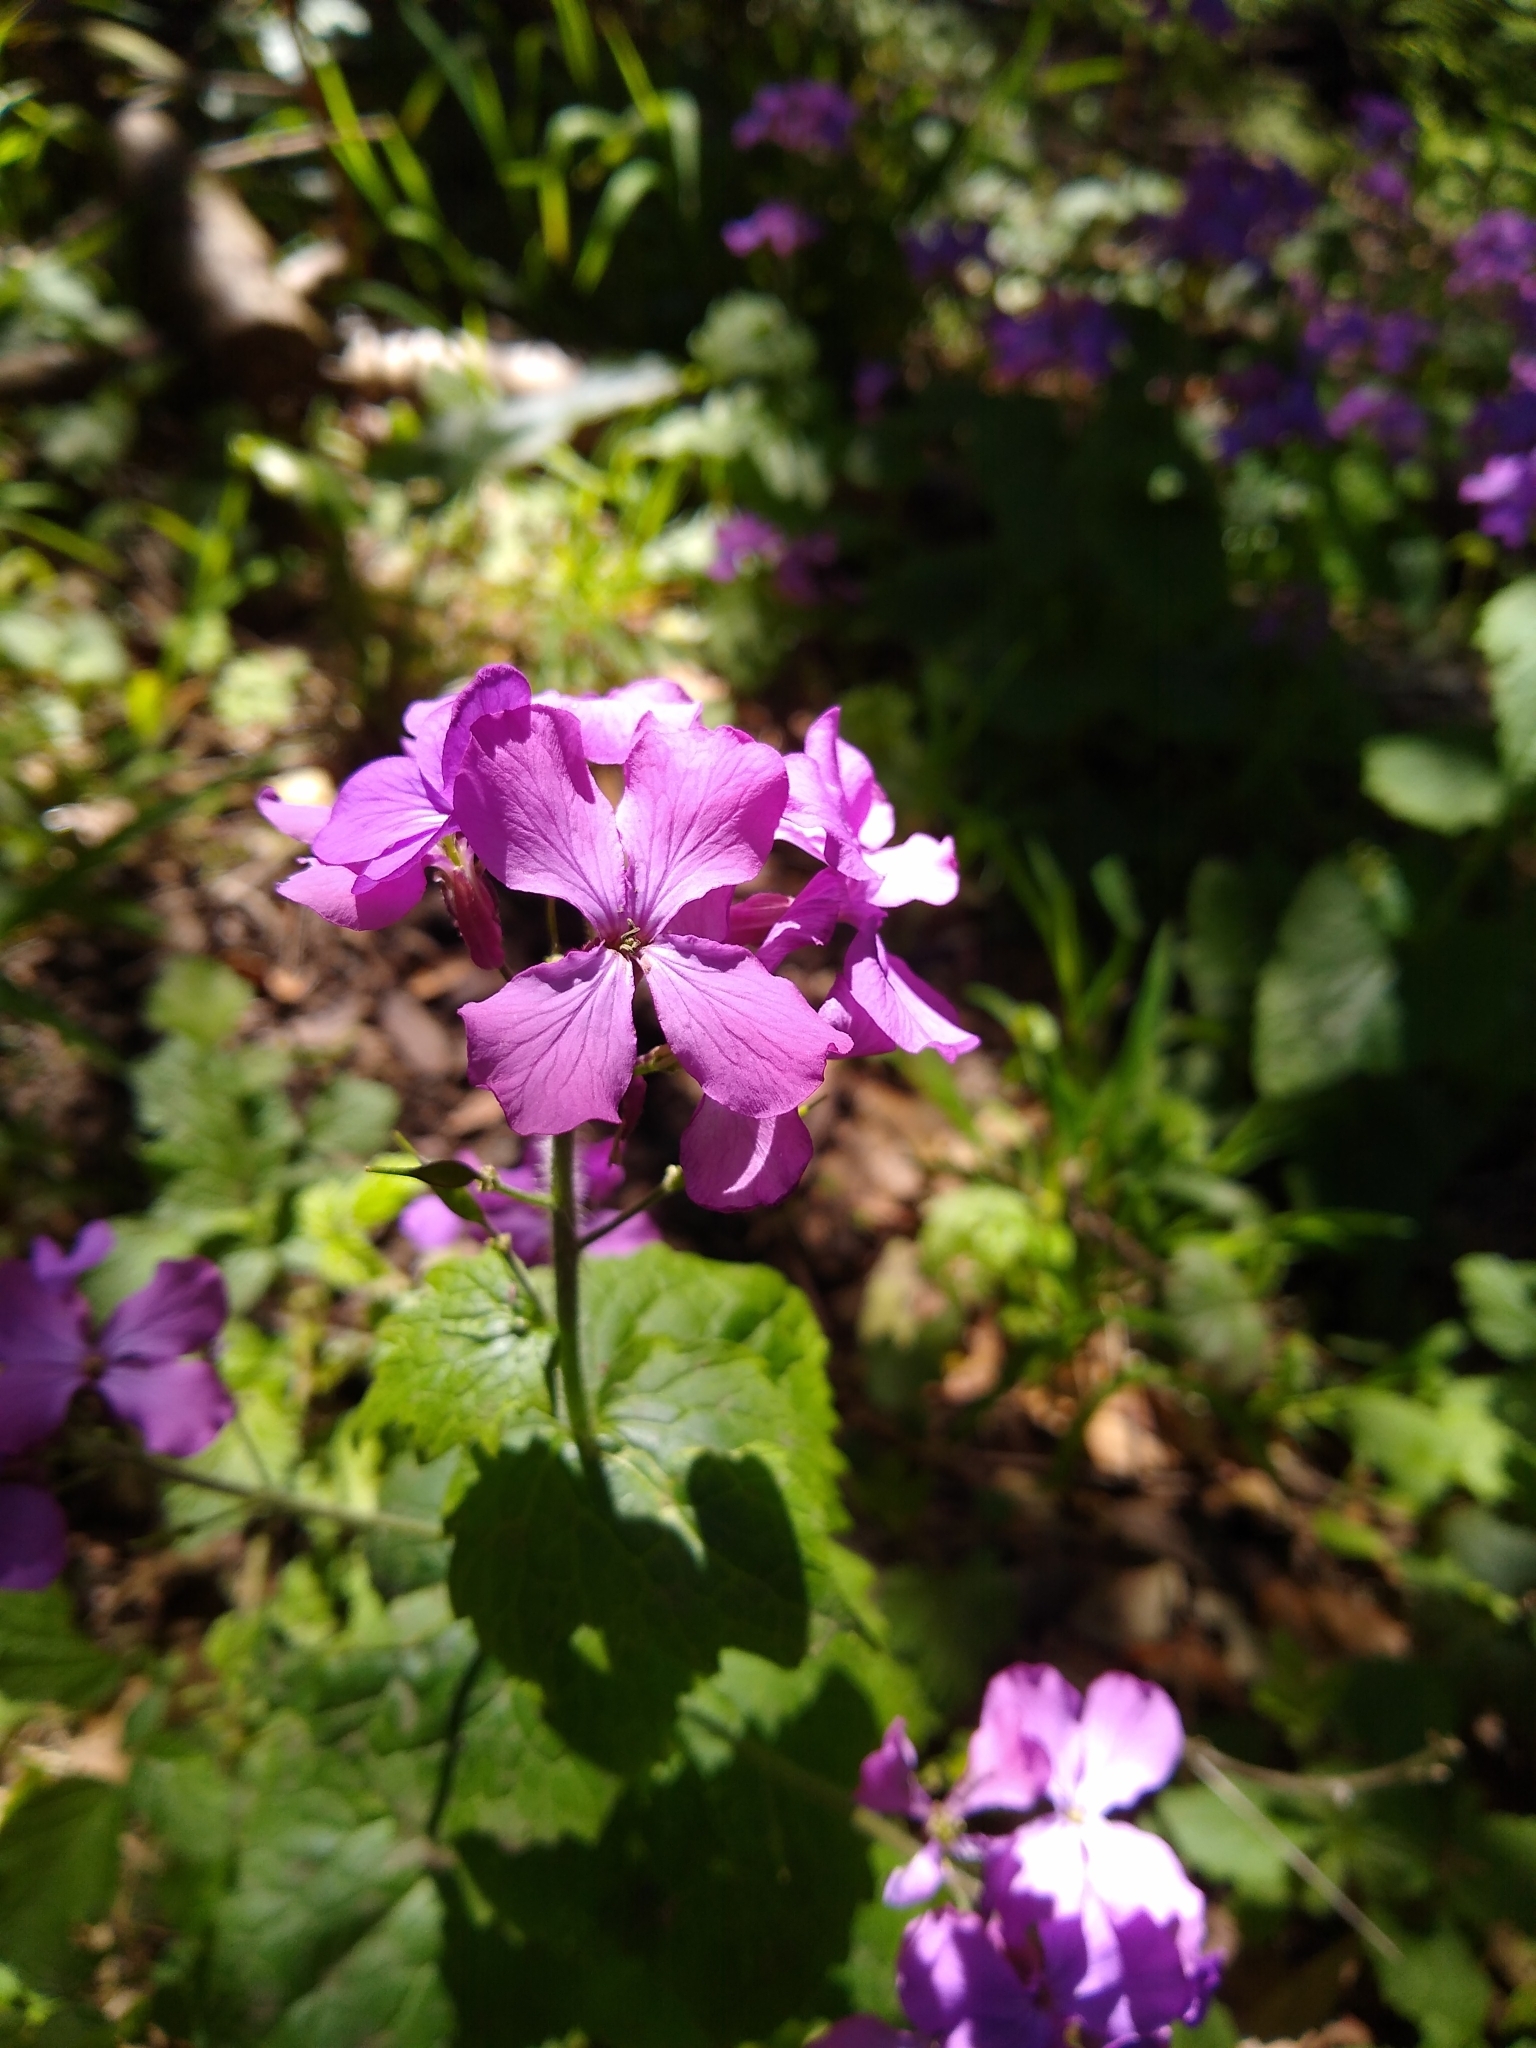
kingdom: Plantae
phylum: Tracheophyta
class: Magnoliopsida
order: Brassicales
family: Brassicaceae
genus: Lunaria
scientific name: Lunaria annua
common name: Honesty
